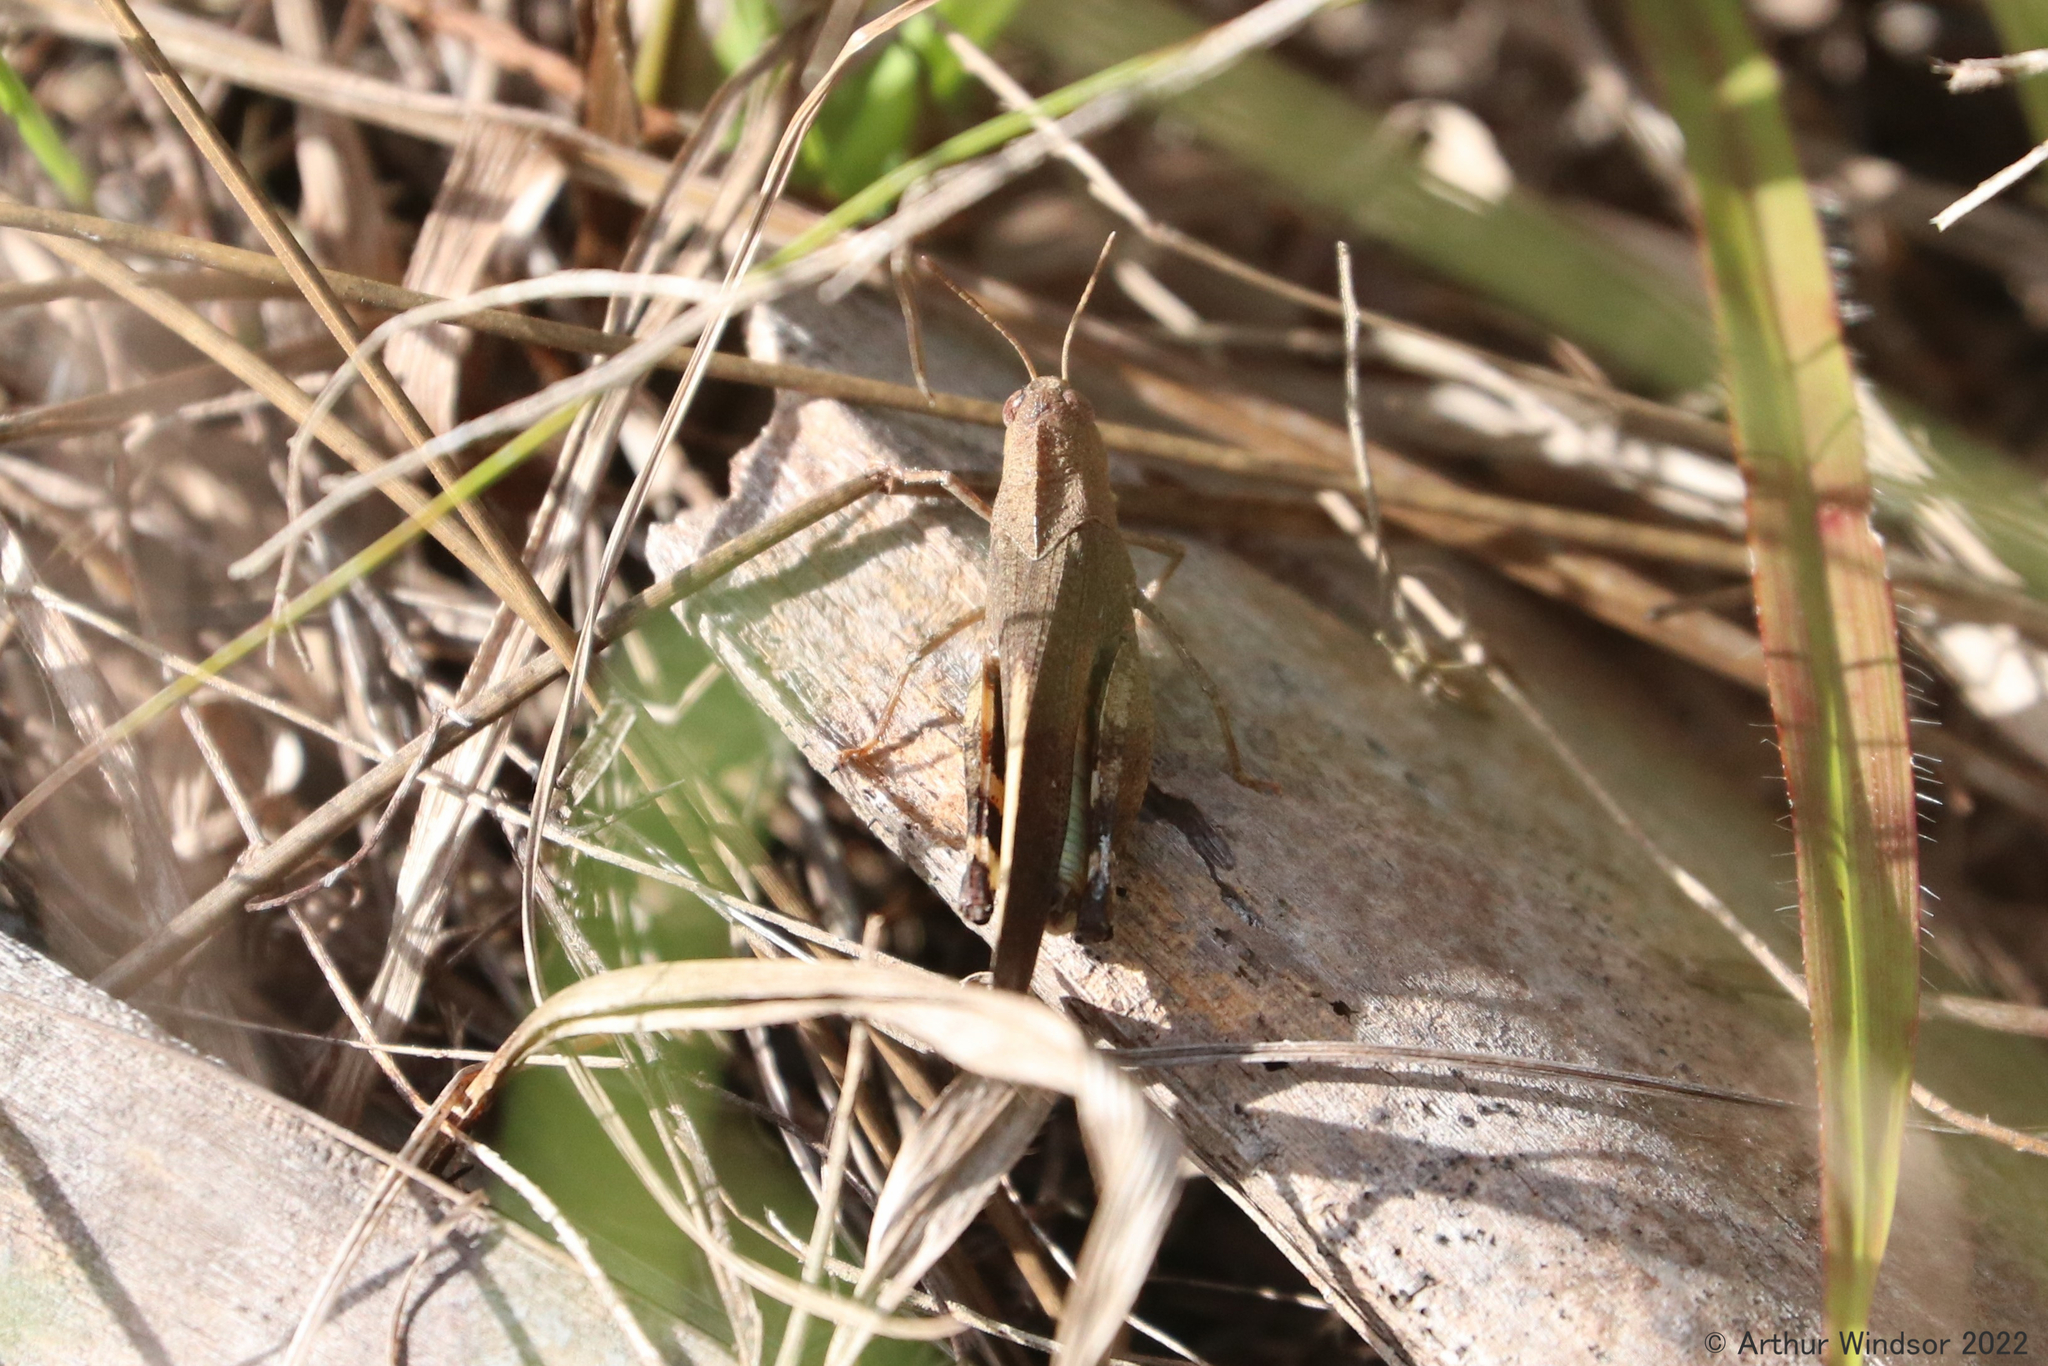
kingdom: Animalia
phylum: Arthropoda
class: Insecta
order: Orthoptera
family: Acrididae
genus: Arphia
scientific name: Arphia granulata
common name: Southern yellow-winged grasshopper
